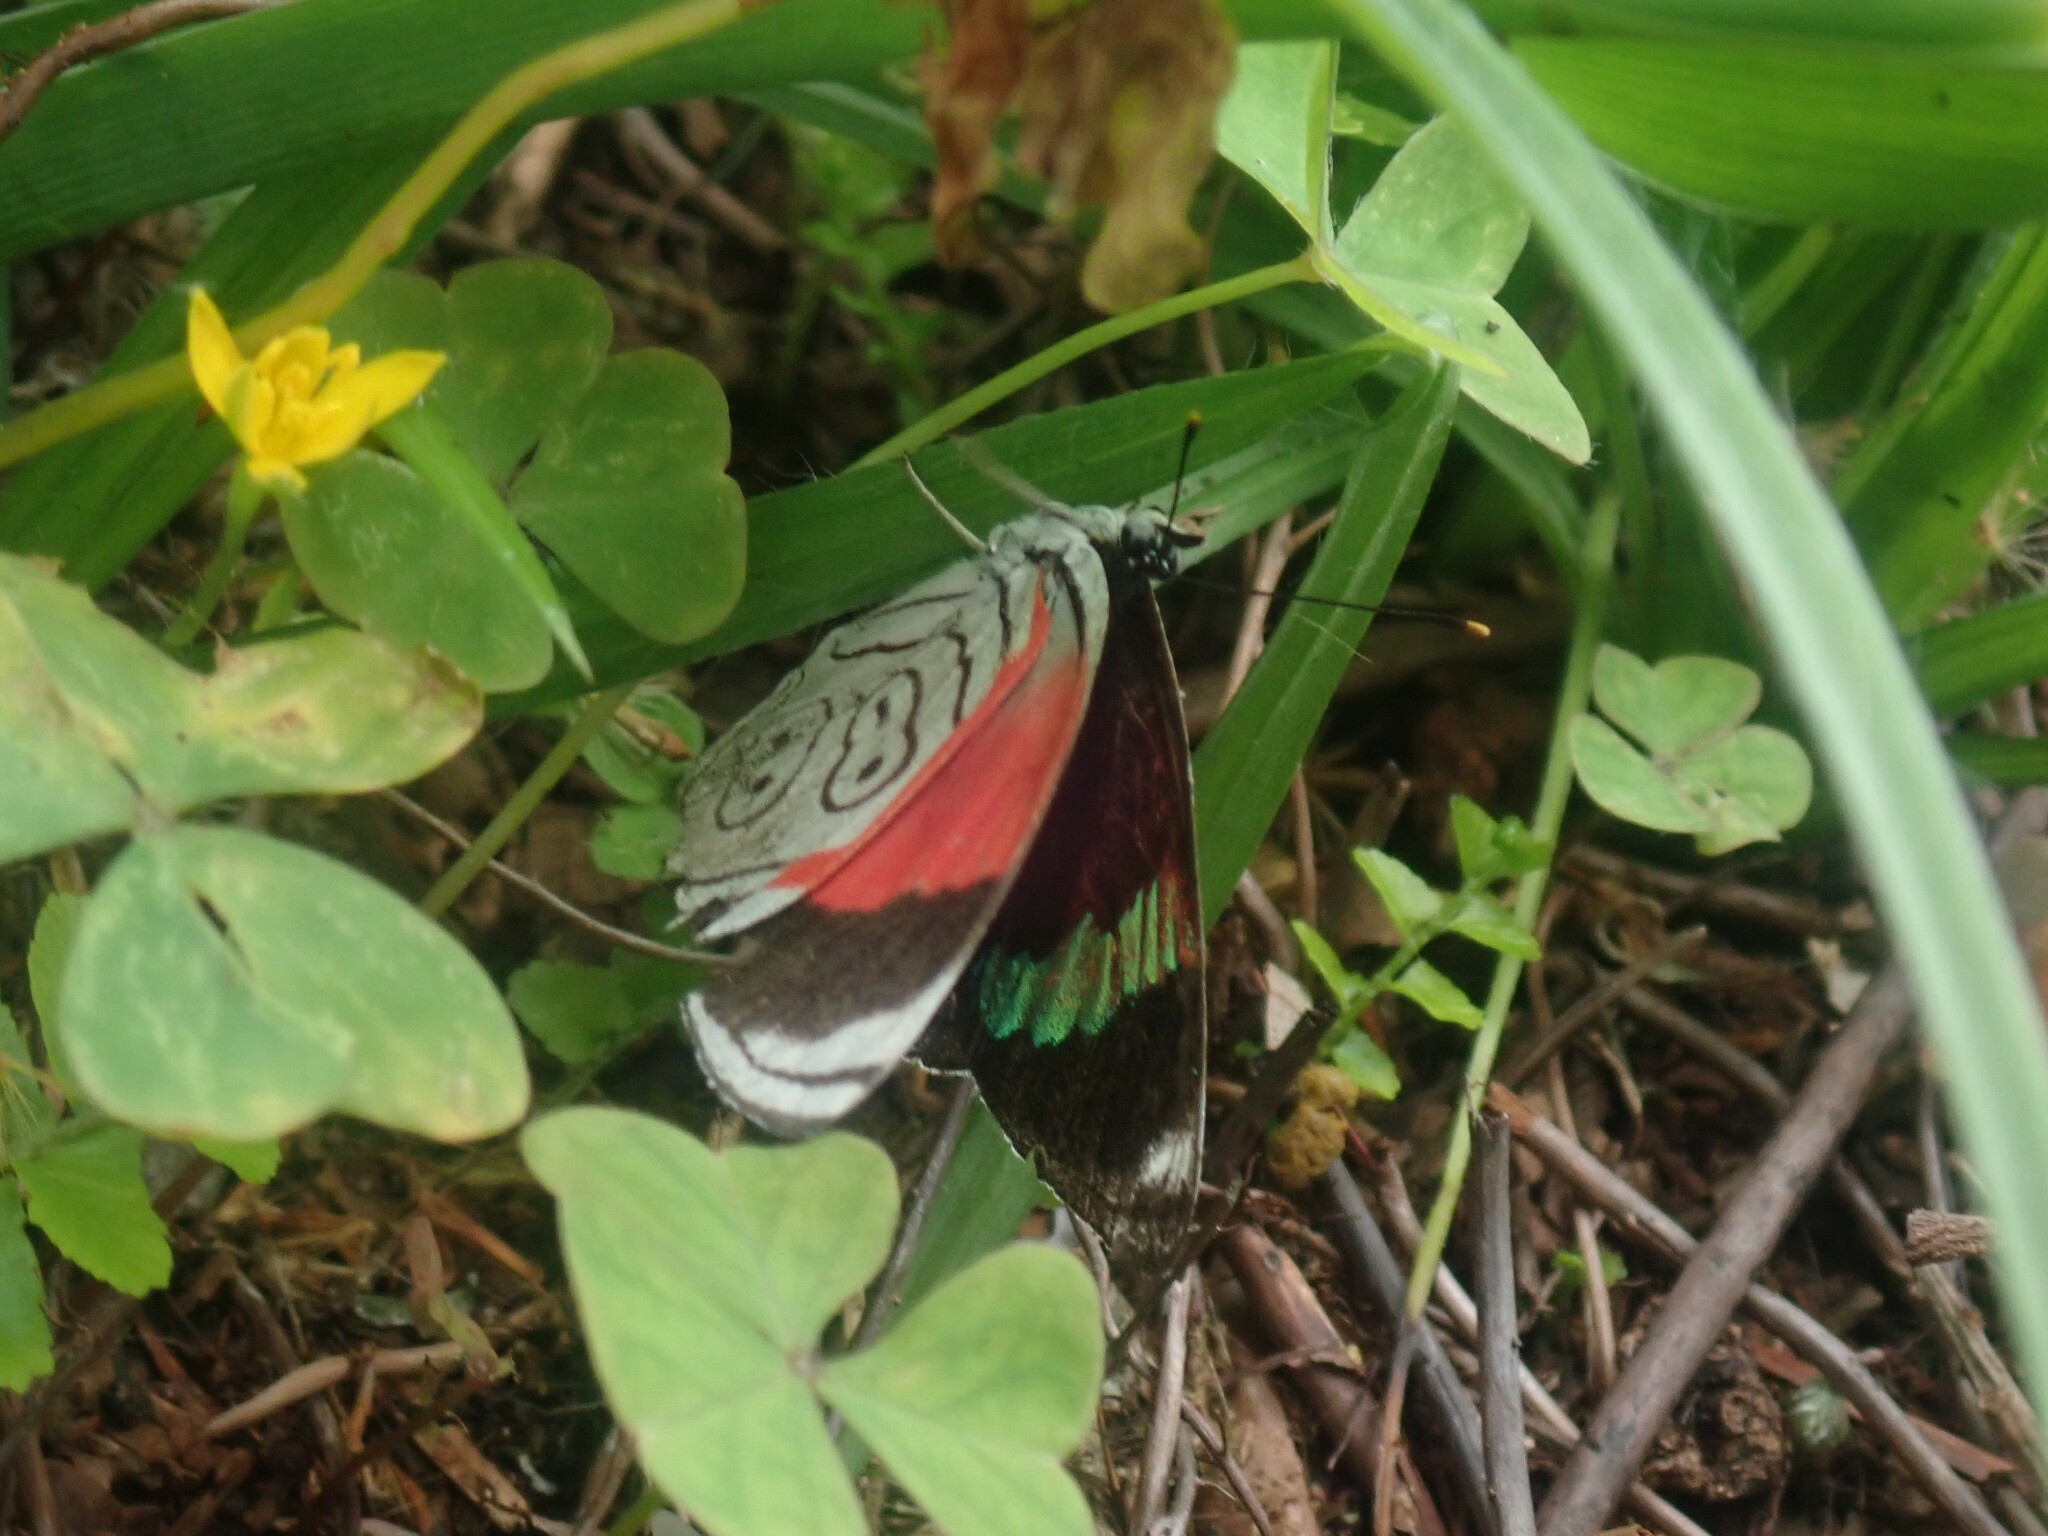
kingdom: Animalia
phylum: Arthropoda
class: Insecta
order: Lepidoptera
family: Nymphalidae
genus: Diaethria
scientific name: Diaethria anna
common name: Anna’s eighty-eight
